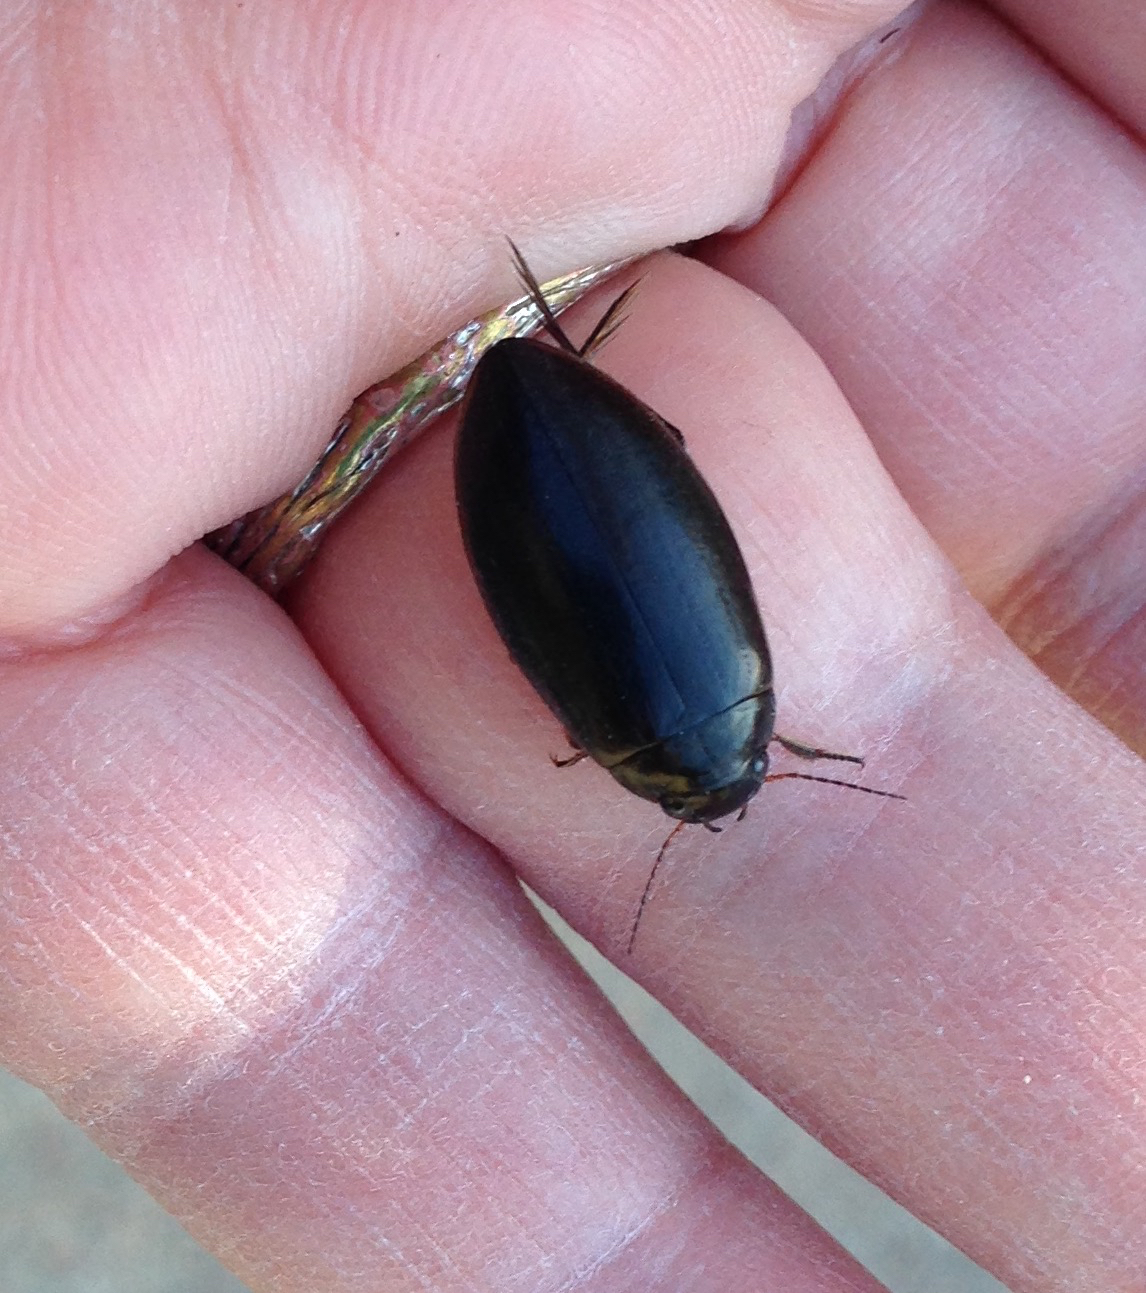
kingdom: Animalia
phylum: Arthropoda
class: Insecta
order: Coleoptera
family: Dytiscidae
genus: Colymbetes
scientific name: Colymbetes paykulli
